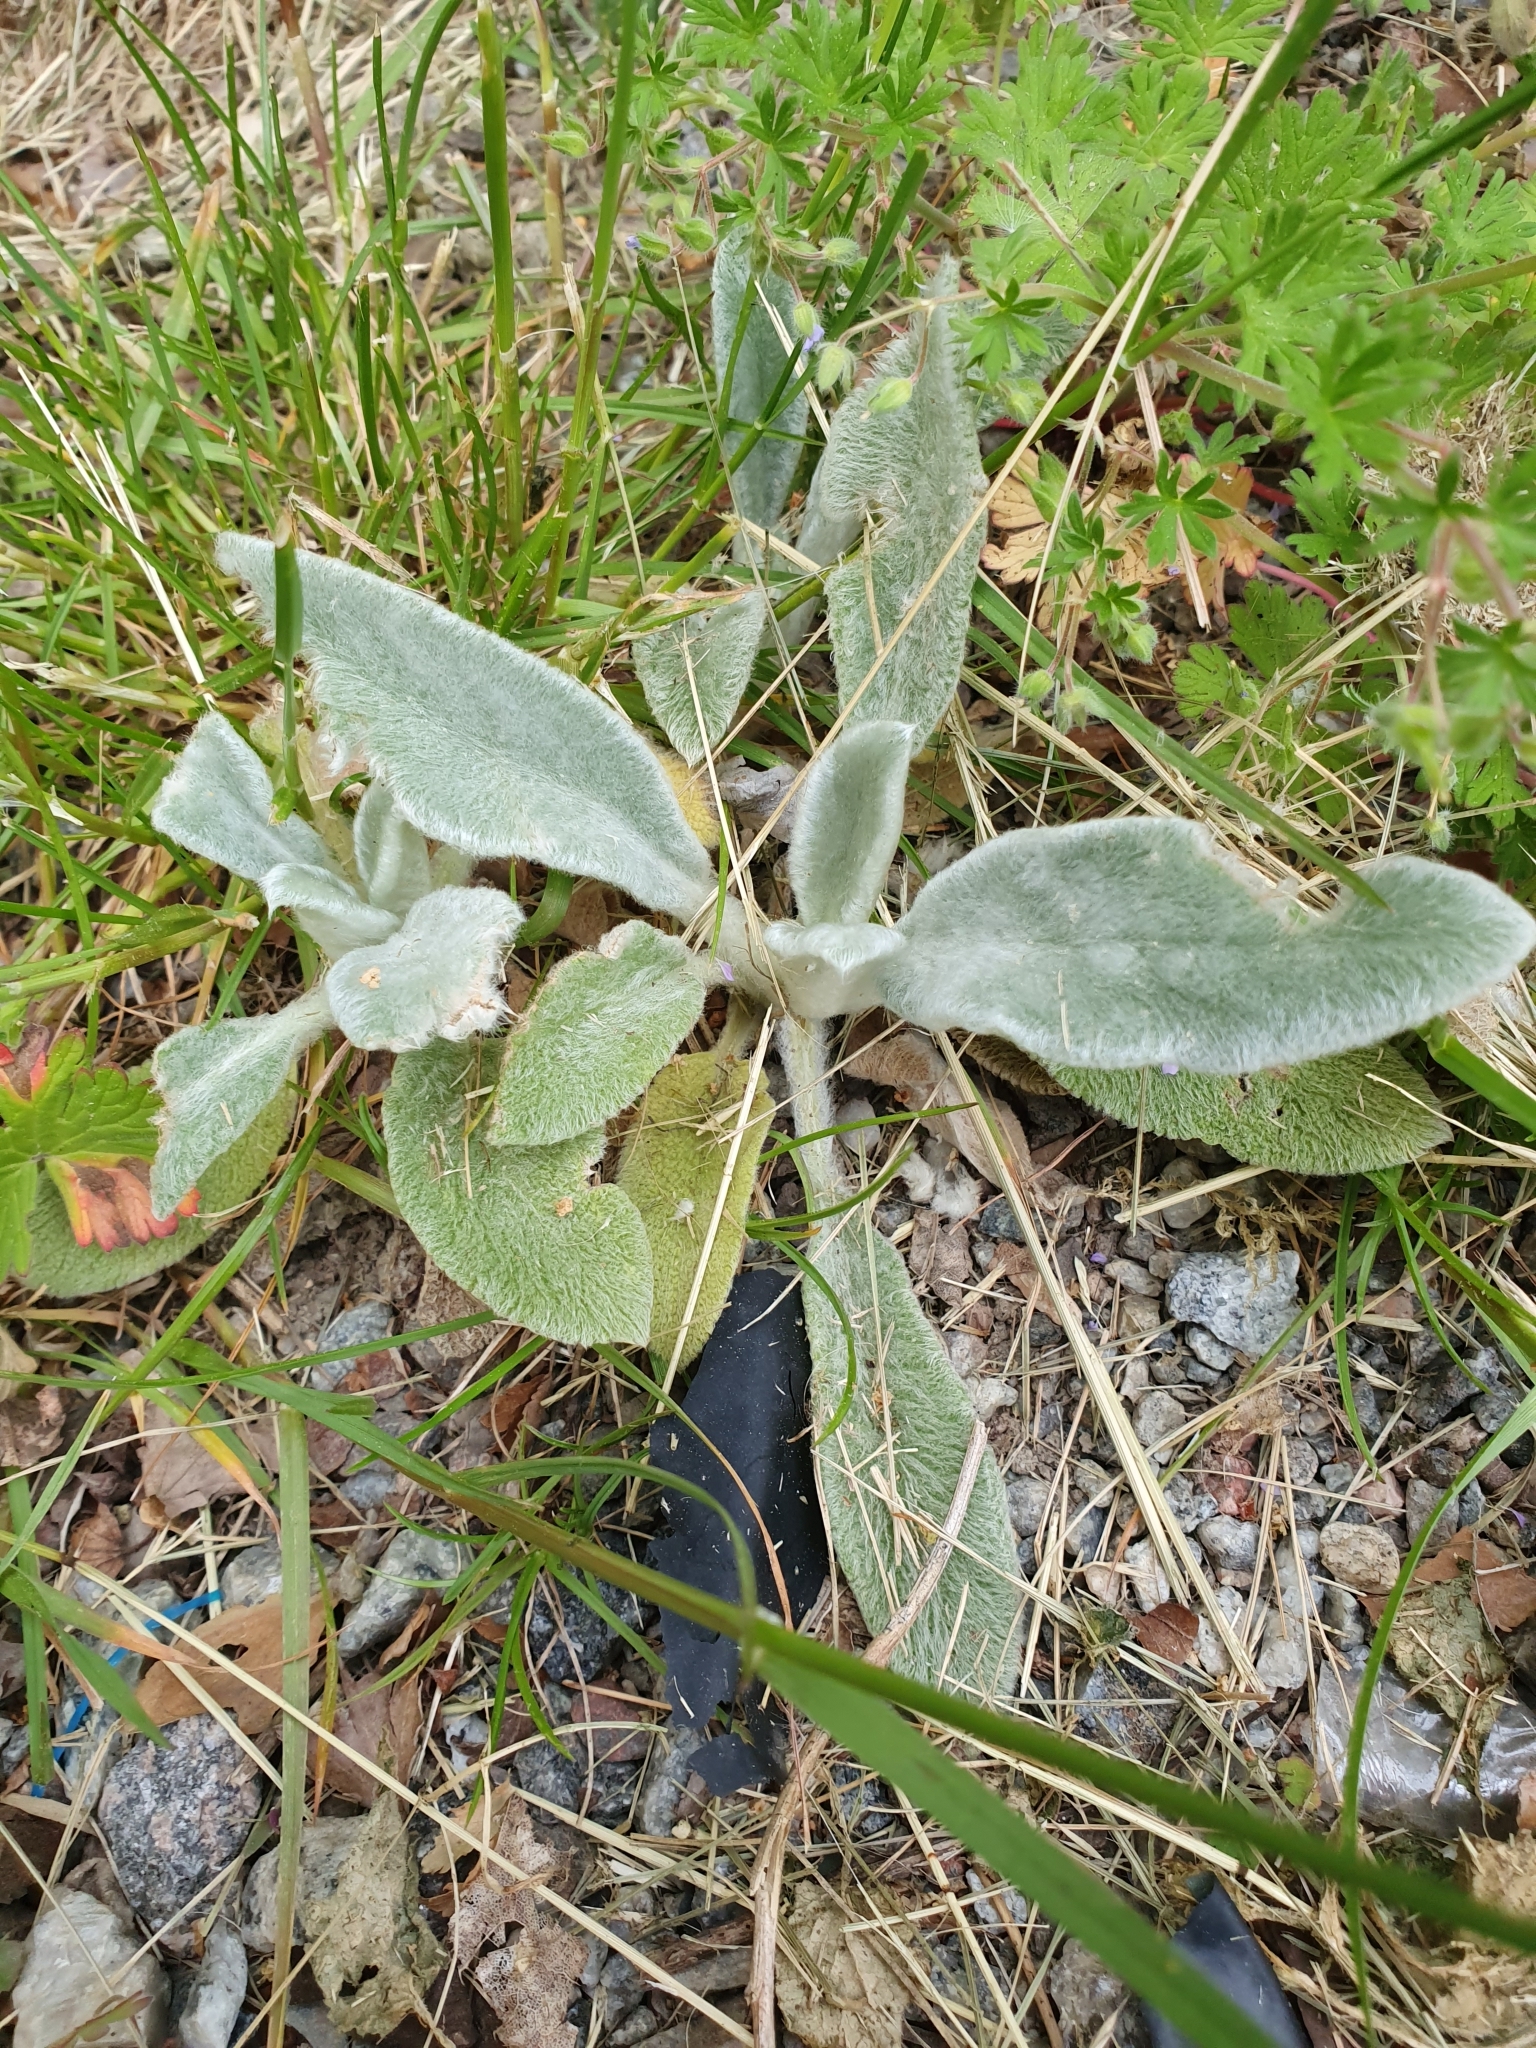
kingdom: Plantae
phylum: Tracheophyta
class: Magnoliopsida
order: Lamiales
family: Lamiaceae
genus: Stachys
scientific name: Stachys byzantina
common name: Lamb's-ear
